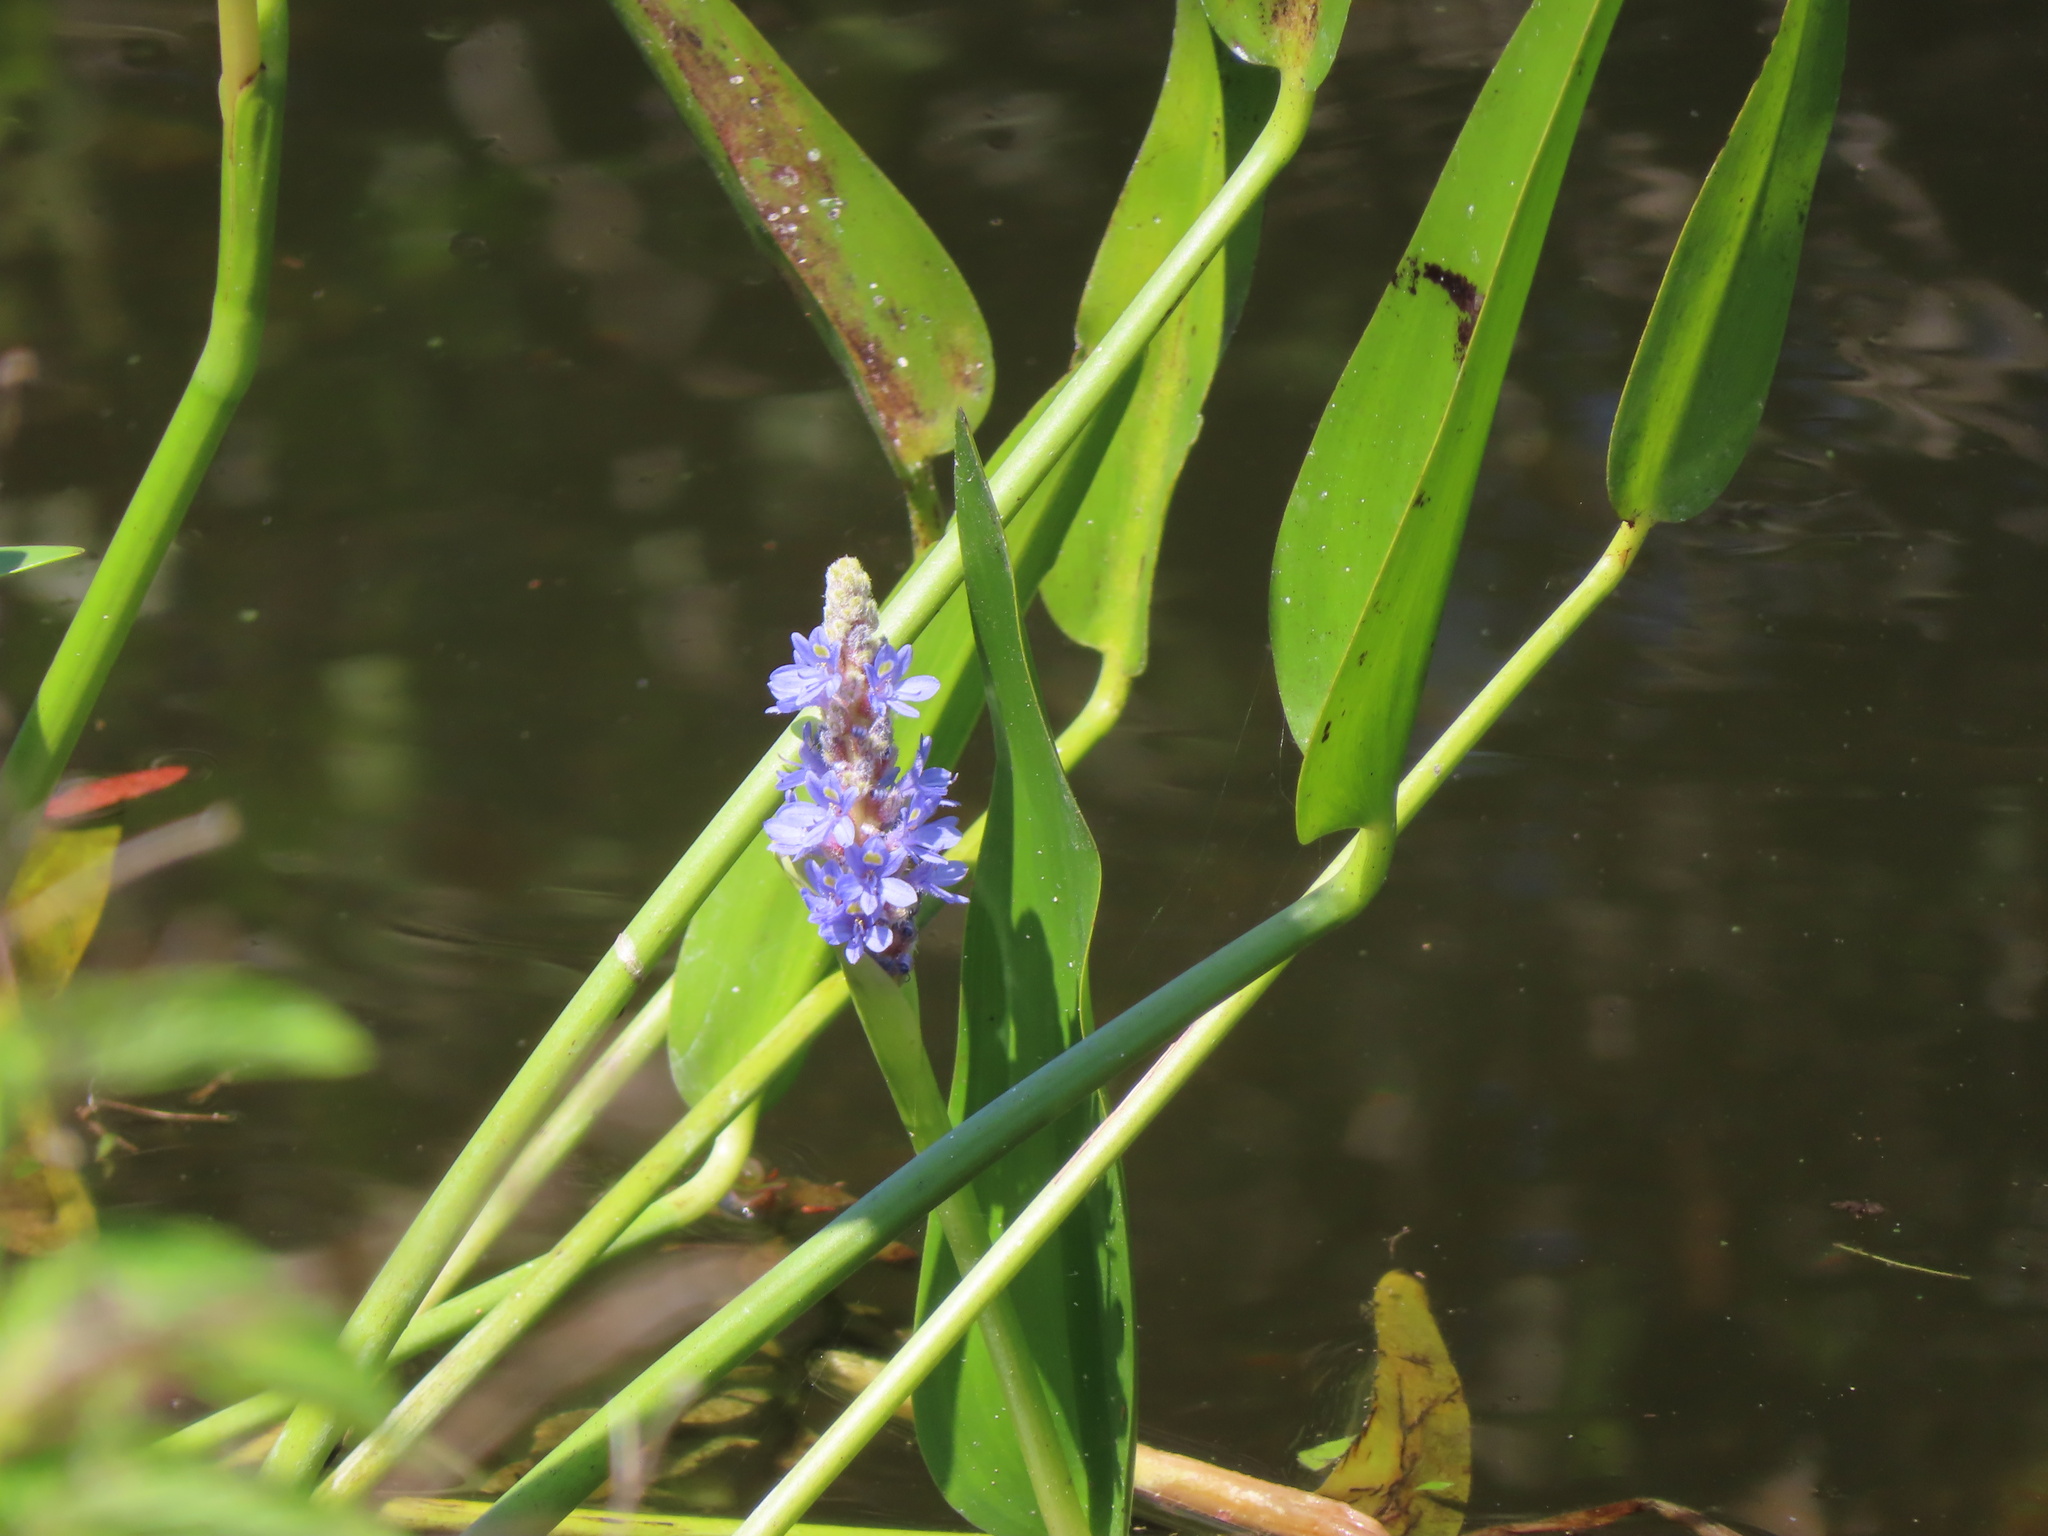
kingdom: Plantae
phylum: Tracheophyta
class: Liliopsida
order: Commelinales
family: Pontederiaceae
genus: Pontederia
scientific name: Pontederia cordata
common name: Pickerelweed
